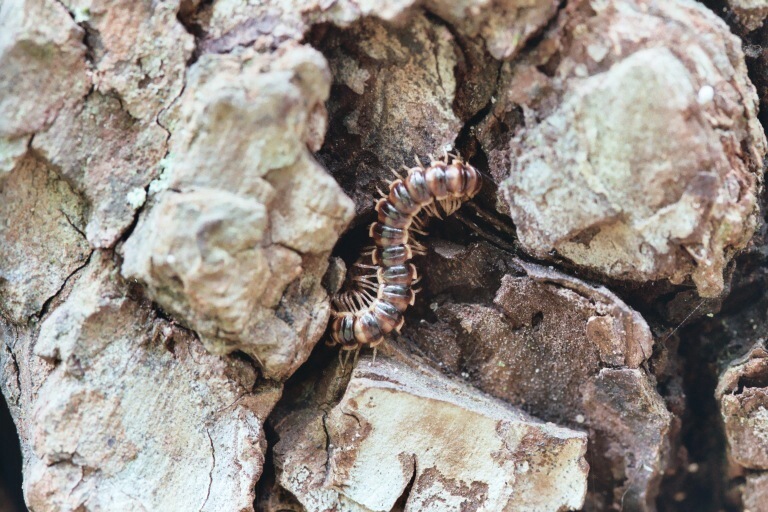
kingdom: Animalia
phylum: Arthropoda
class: Diplopoda
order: Polydesmida
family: Paradoxosomatidae
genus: Oxidus
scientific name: Oxidus gracilis
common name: Greenhouse millipede
